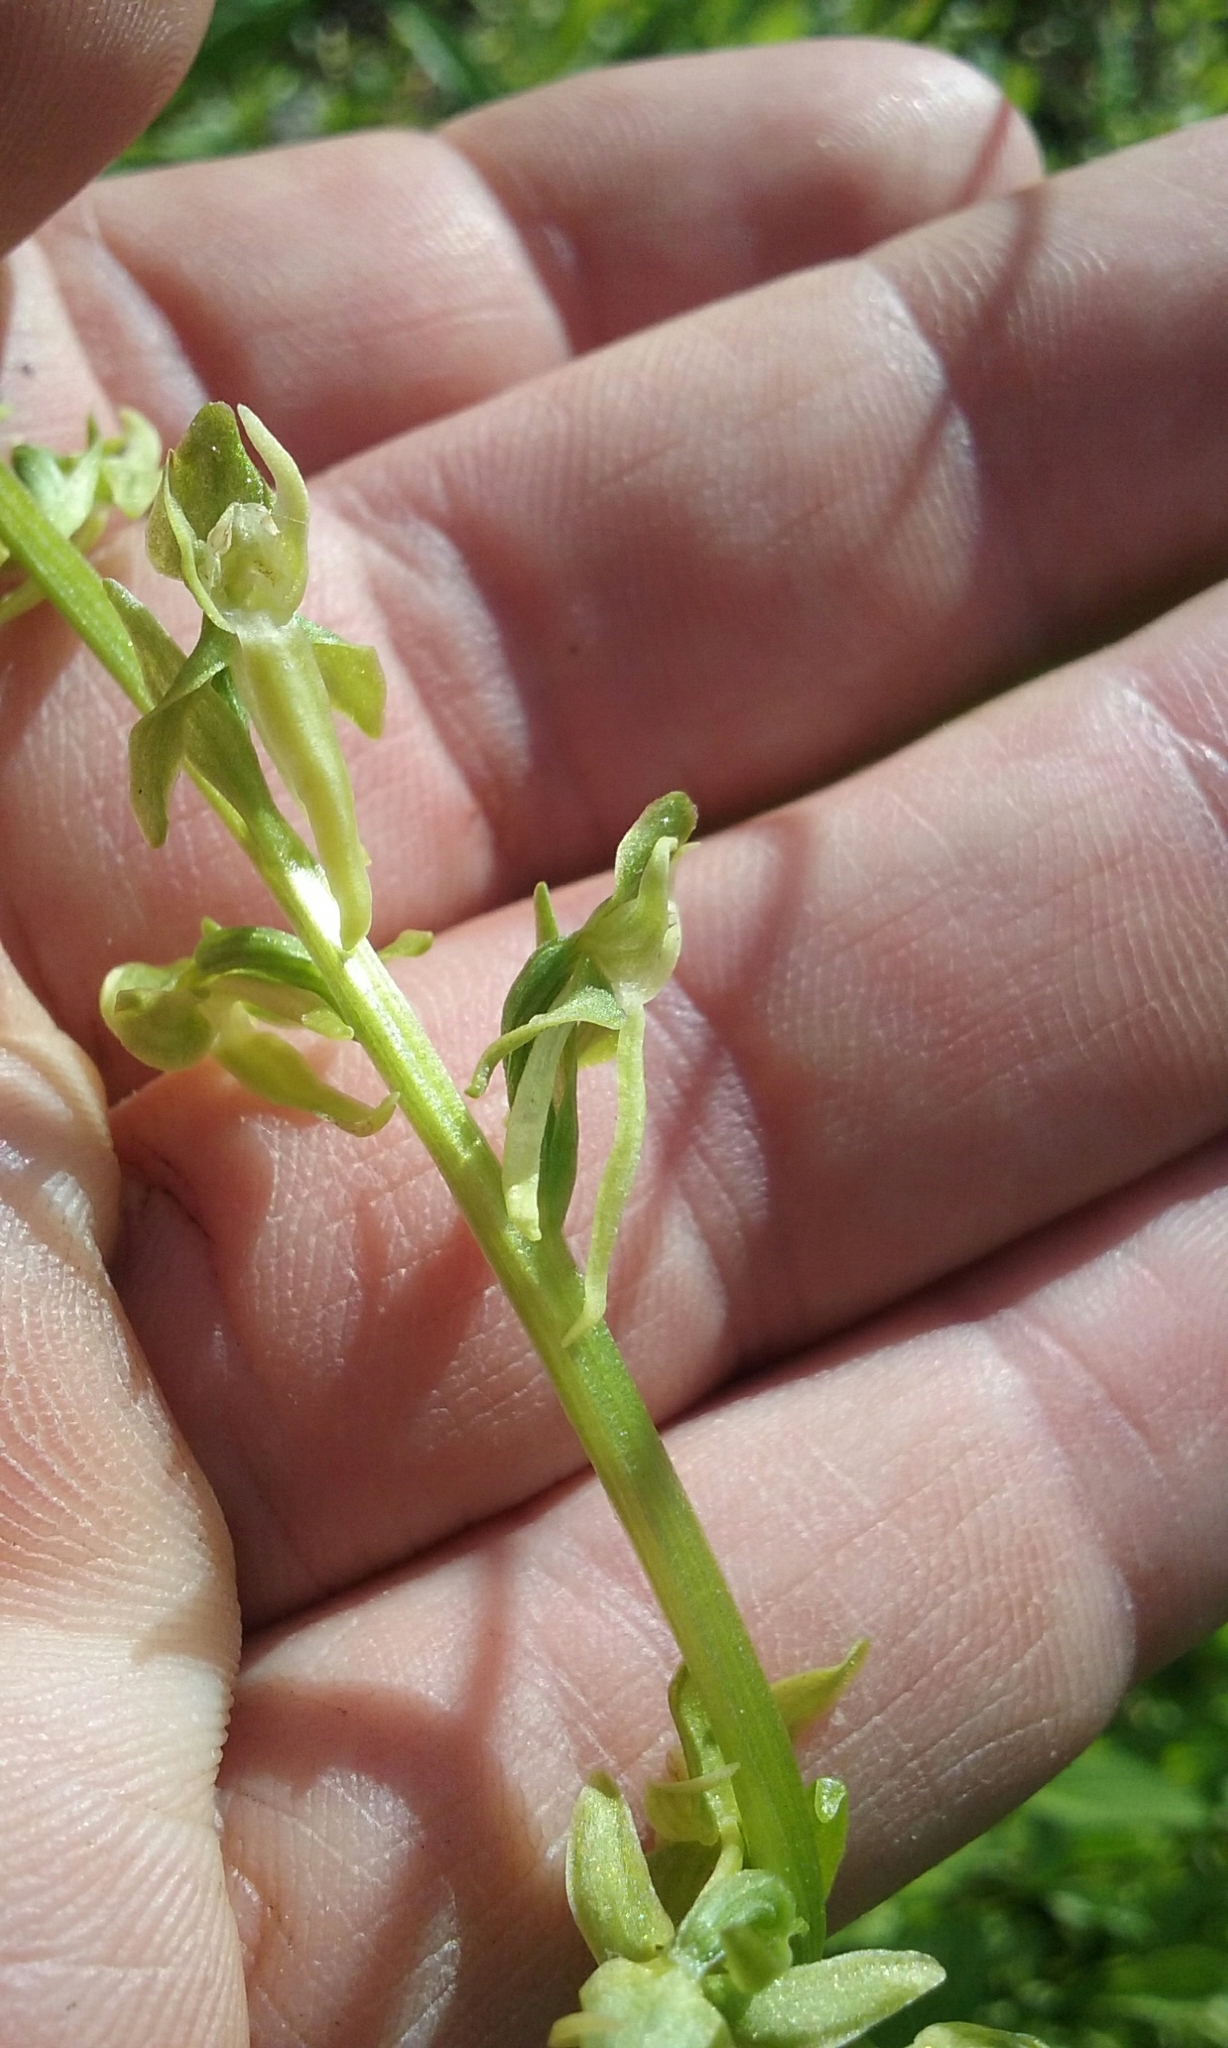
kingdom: Plantae
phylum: Tracheophyta
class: Liliopsida
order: Asparagales
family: Orchidaceae
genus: Platanthera
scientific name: Platanthera sparsiflora
